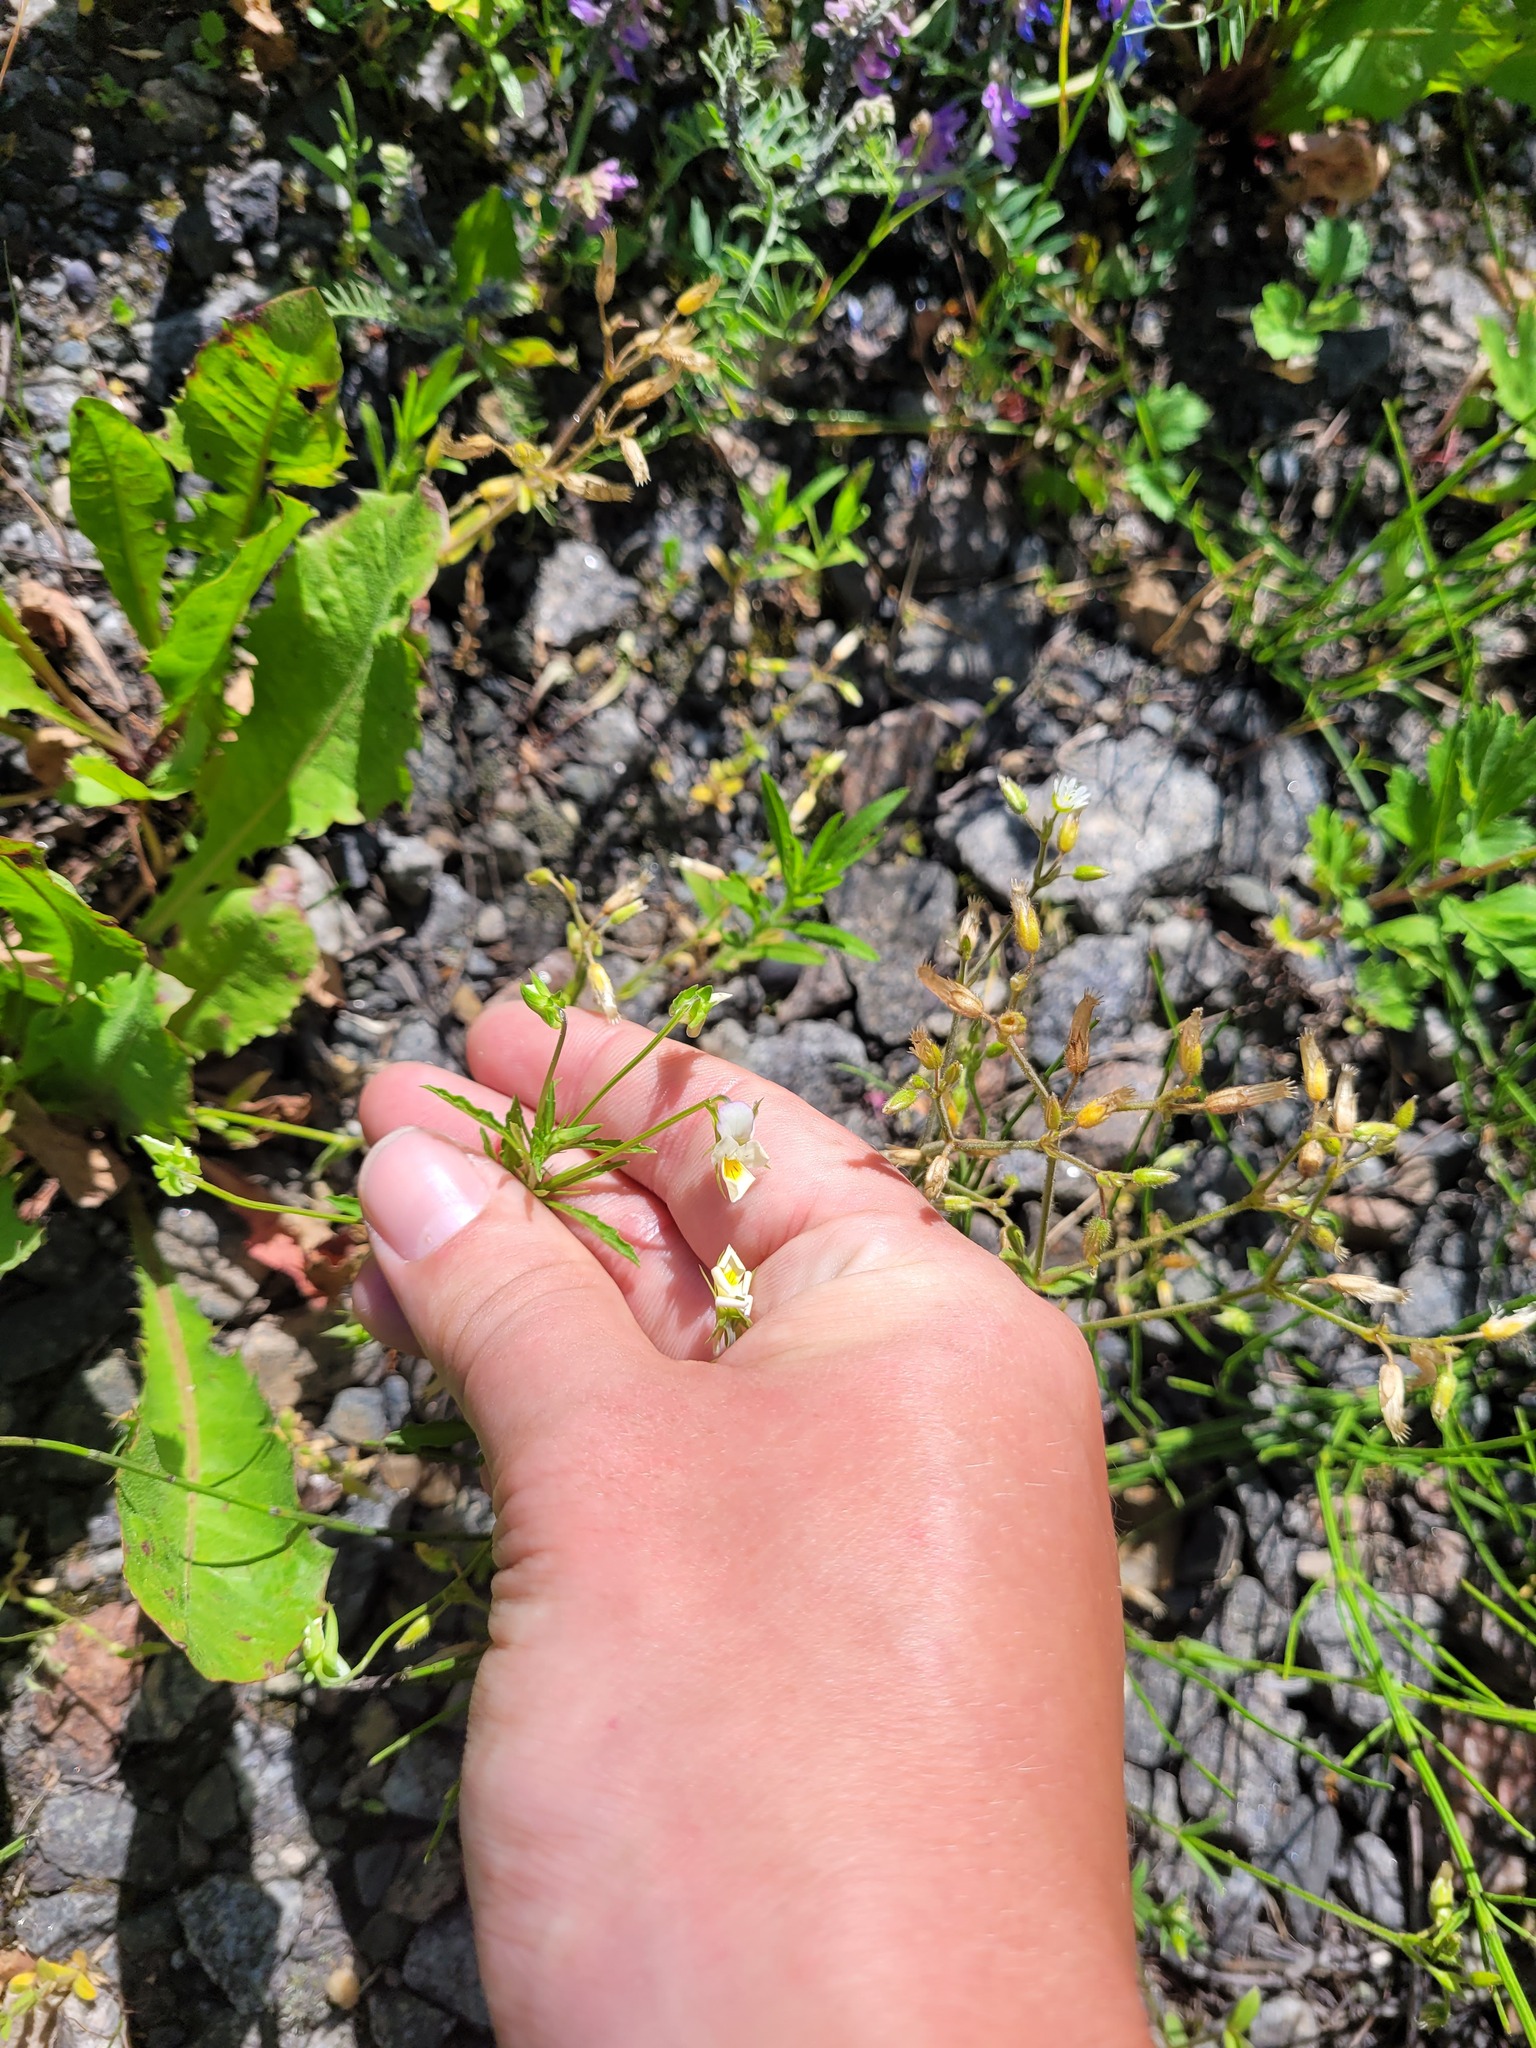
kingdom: Plantae
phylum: Tracheophyta
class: Magnoliopsida
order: Malpighiales
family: Violaceae
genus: Viola
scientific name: Viola arvensis
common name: Field pansy
